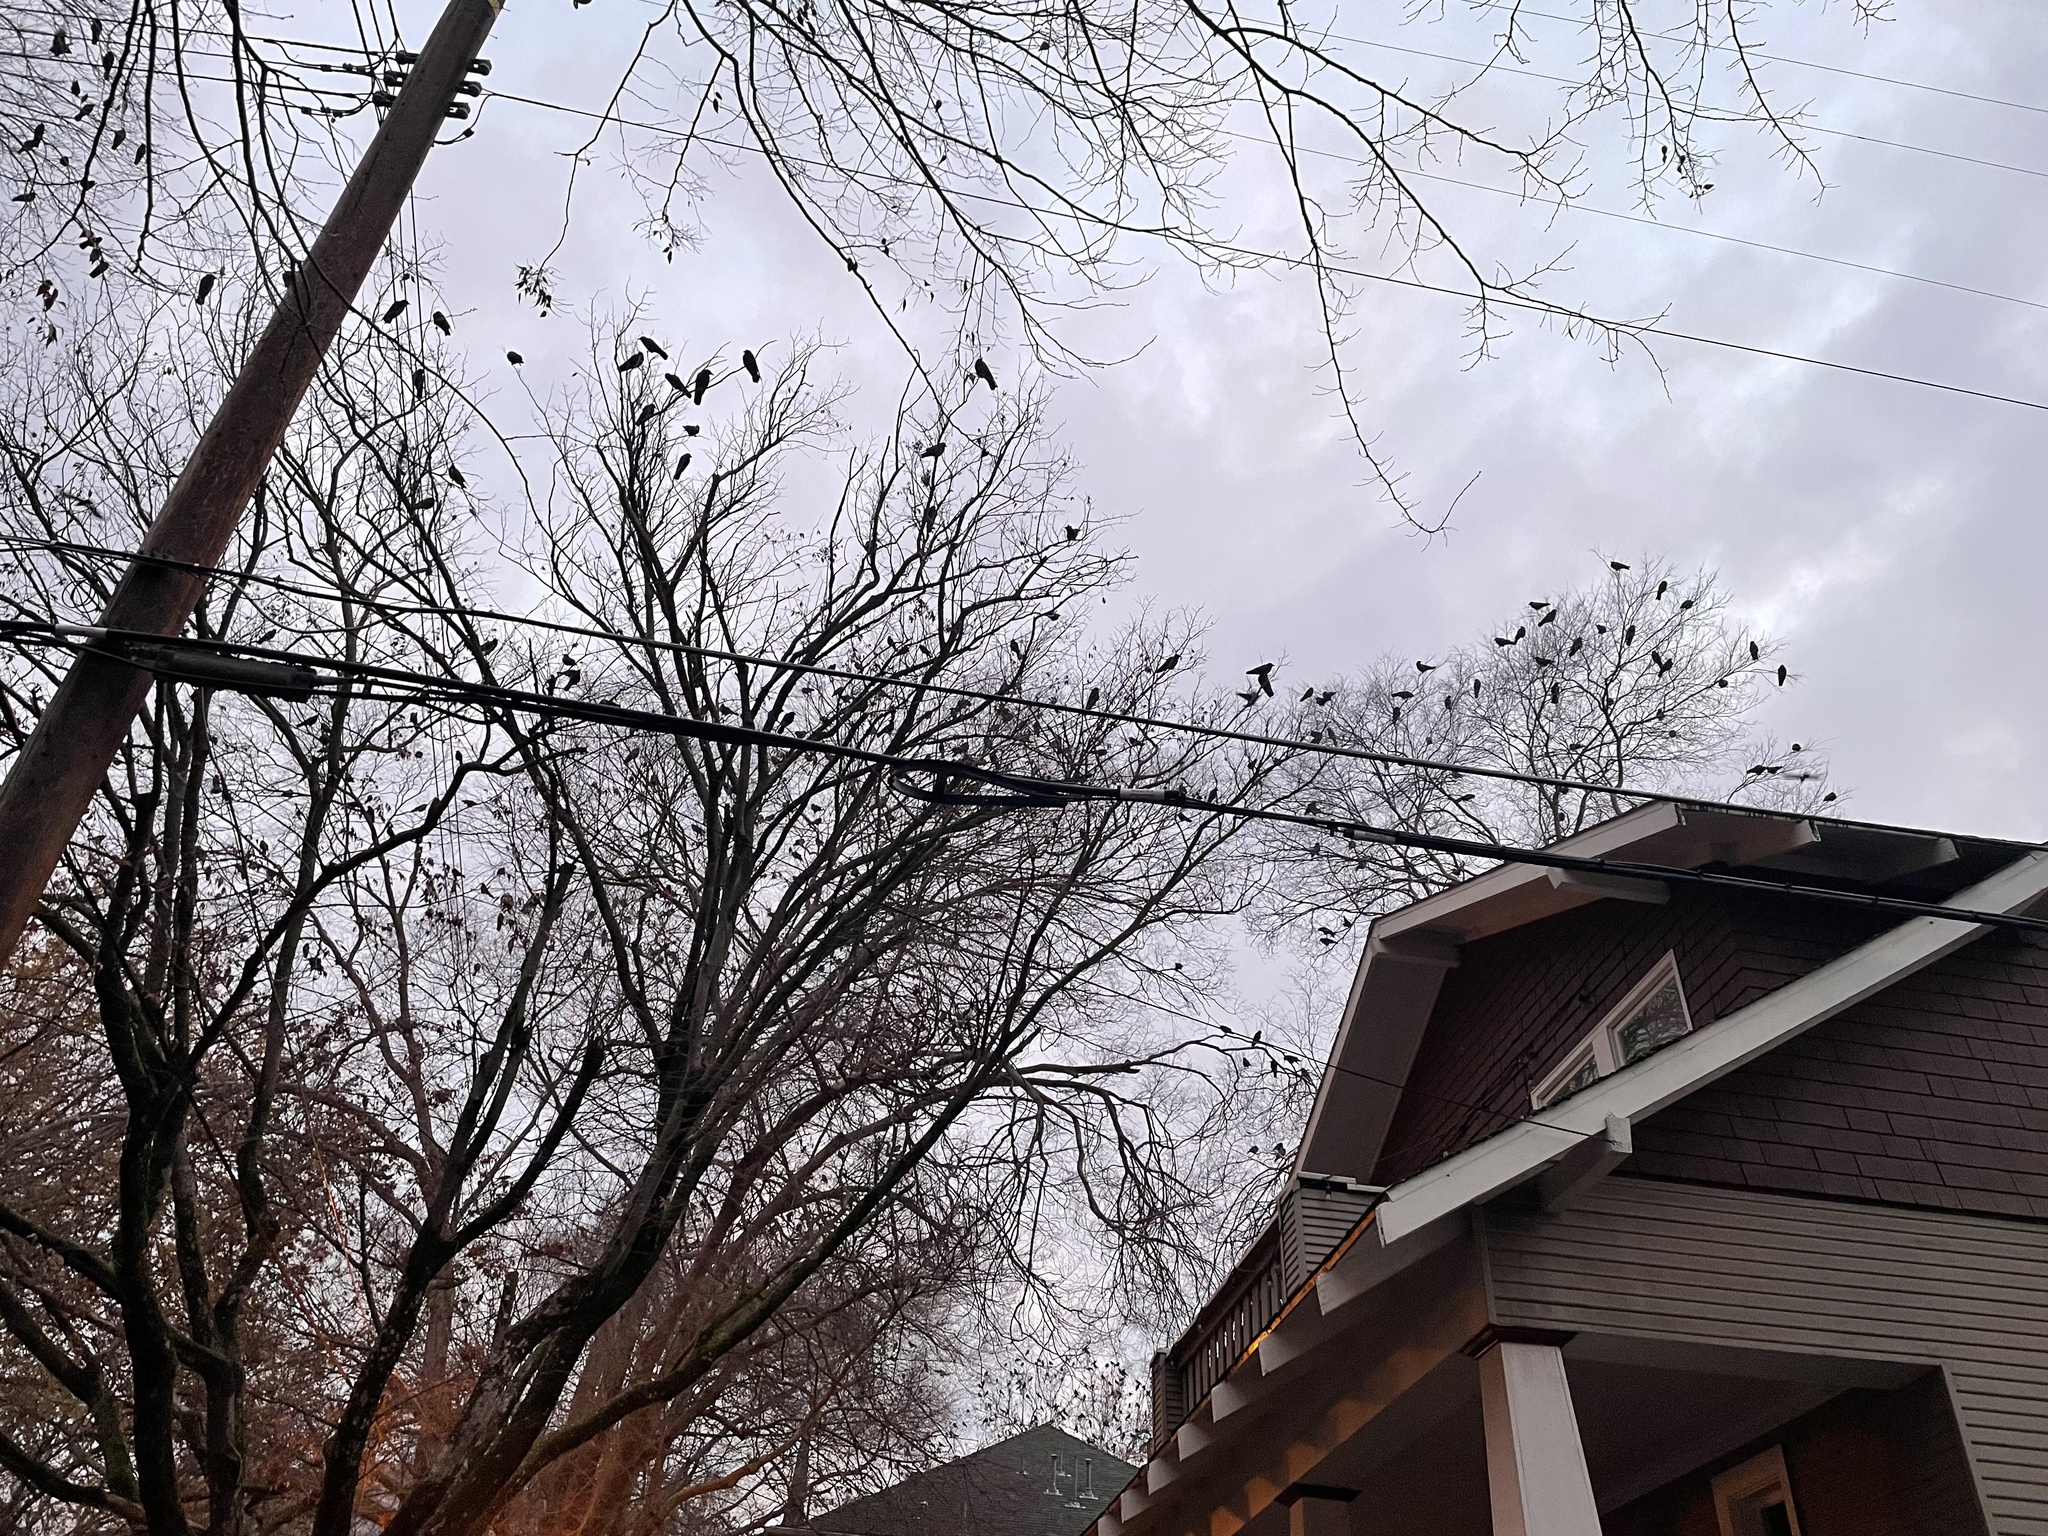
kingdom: Animalia
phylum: Chordata
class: Aves
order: Passeriformes
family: Corvidae
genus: Corvus
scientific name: Corvus brachyrhynchos
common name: American crow
